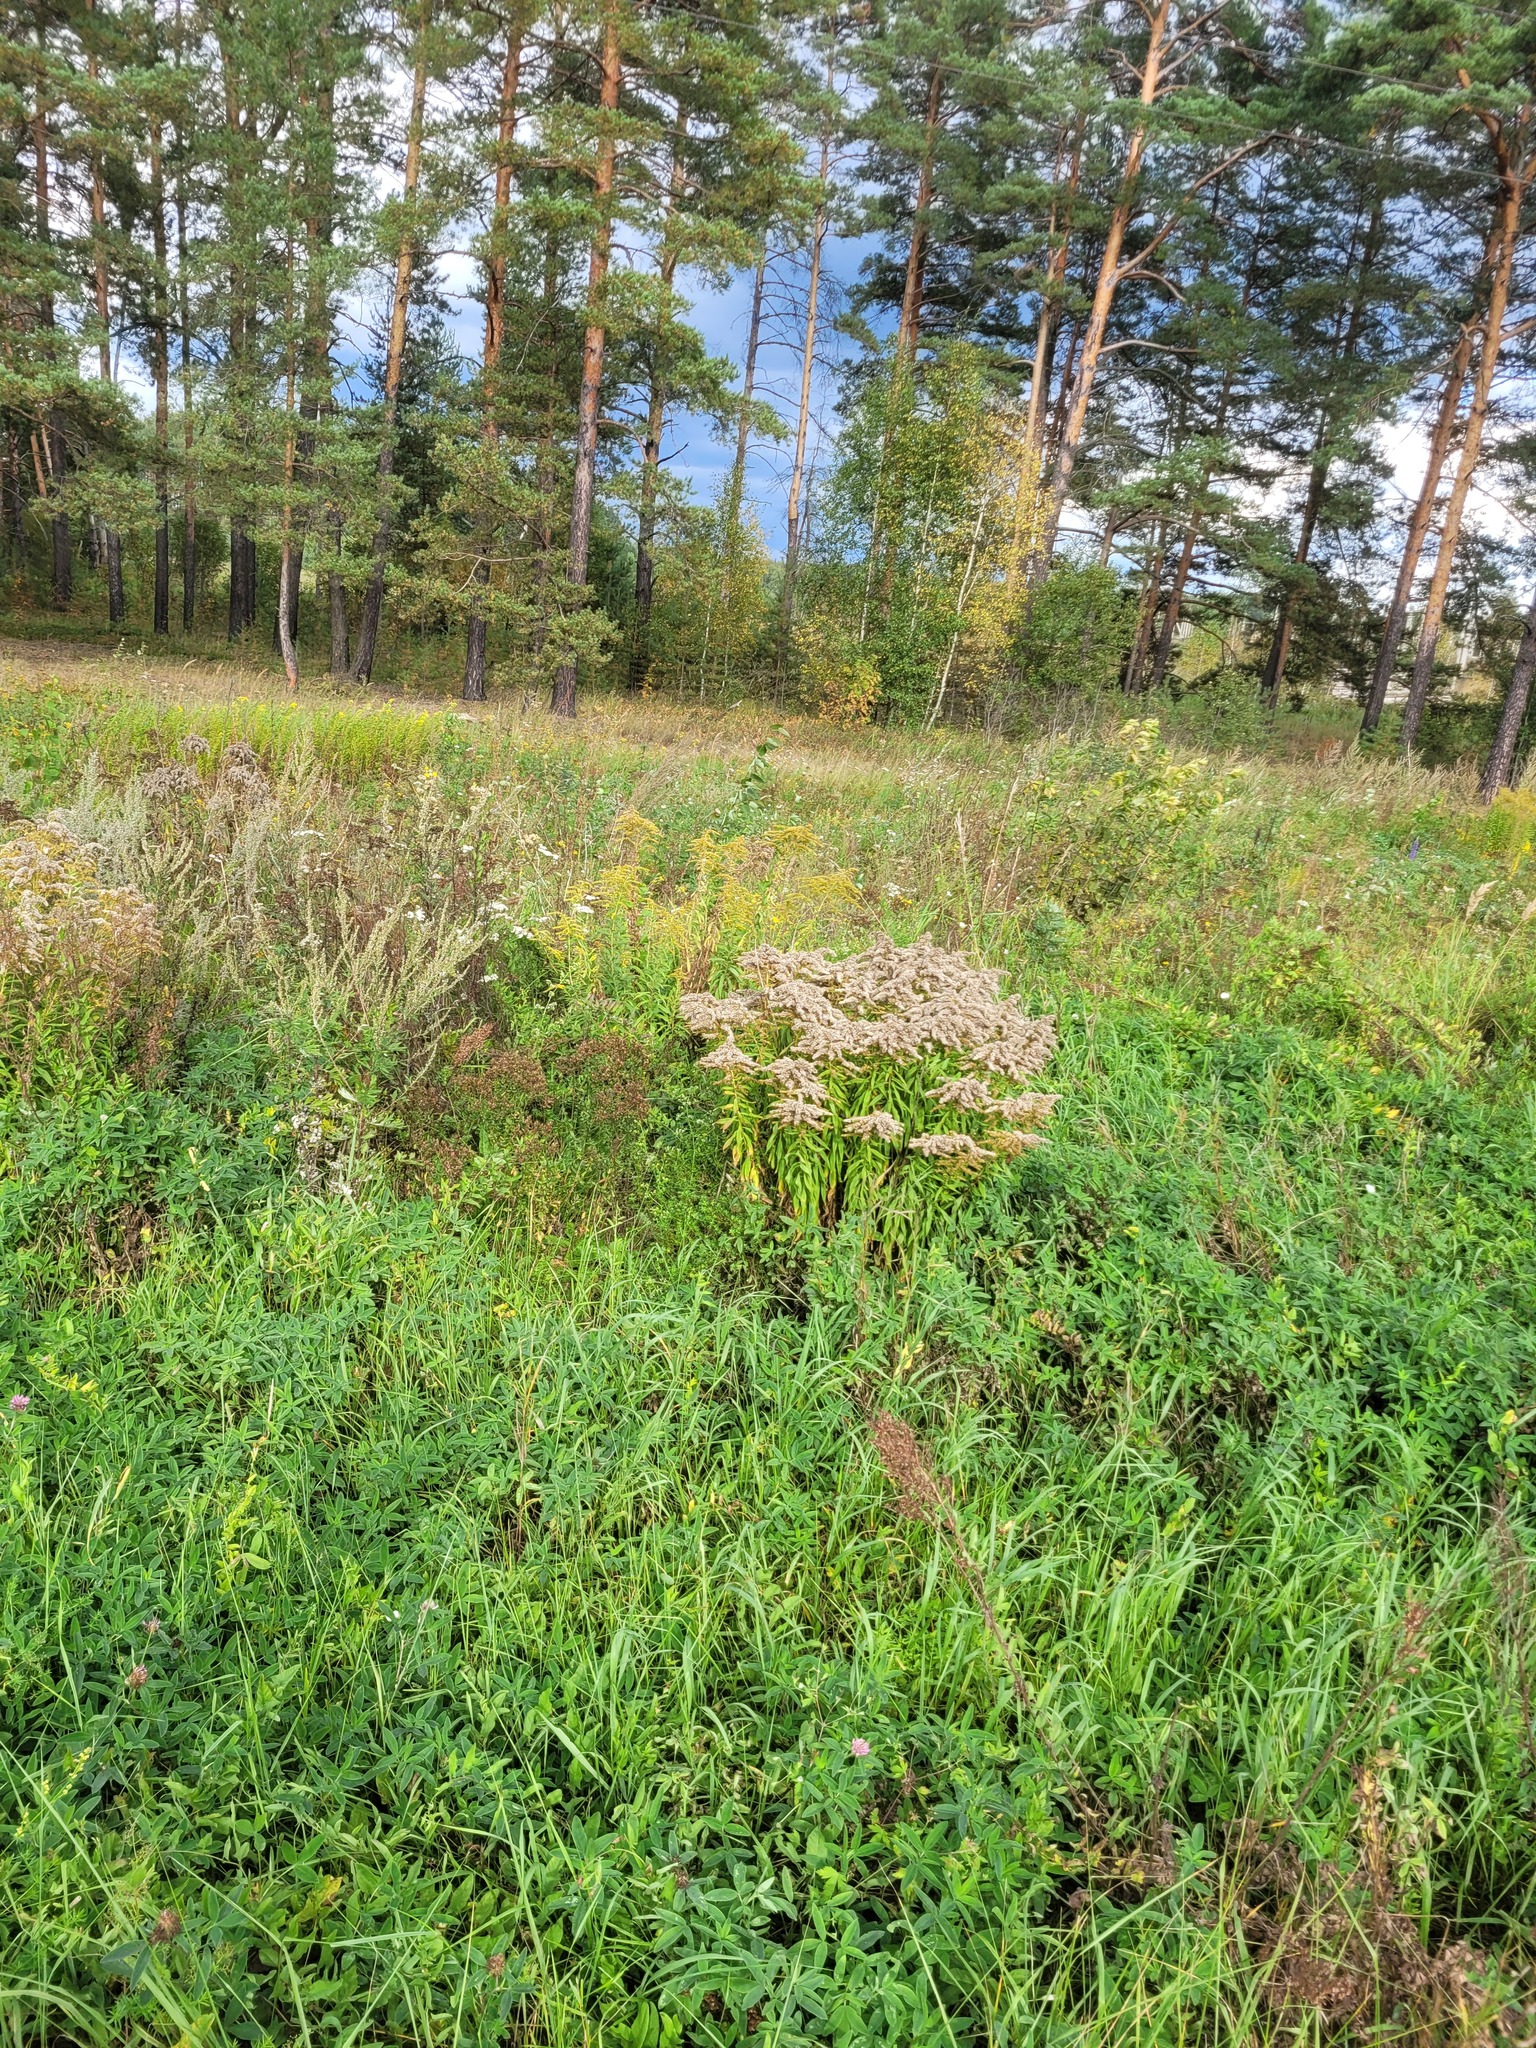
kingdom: Plantae
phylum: Tracheophyta
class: Magnoliopsida
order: Asterales
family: Asteraceae
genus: Solidago
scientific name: Solidago canadensis
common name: Canada goldenrod
